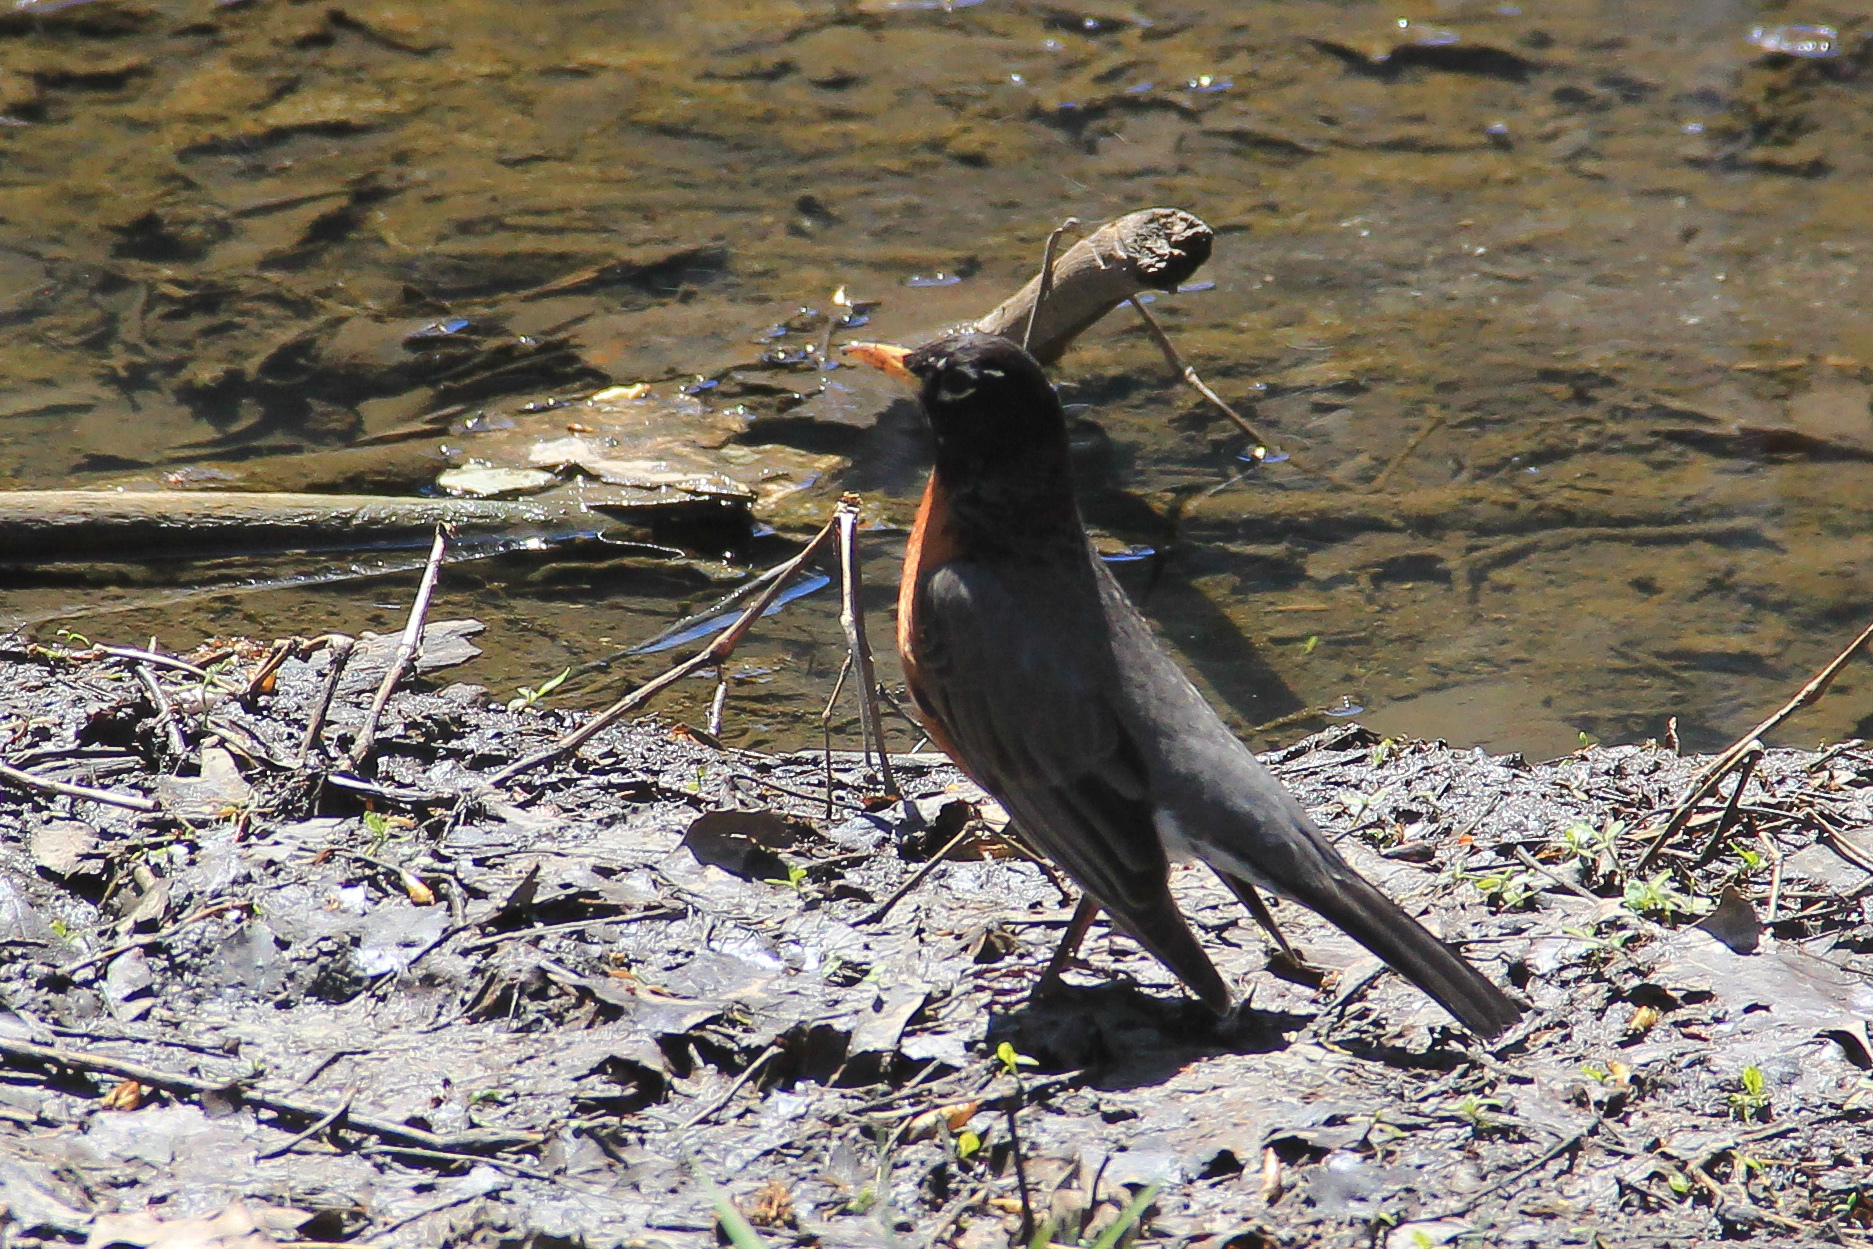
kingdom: Animalia
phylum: Chordata
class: Aves
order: Passeriformes
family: Turdidae
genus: Turdus
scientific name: Turdus migratorius
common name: American robin
